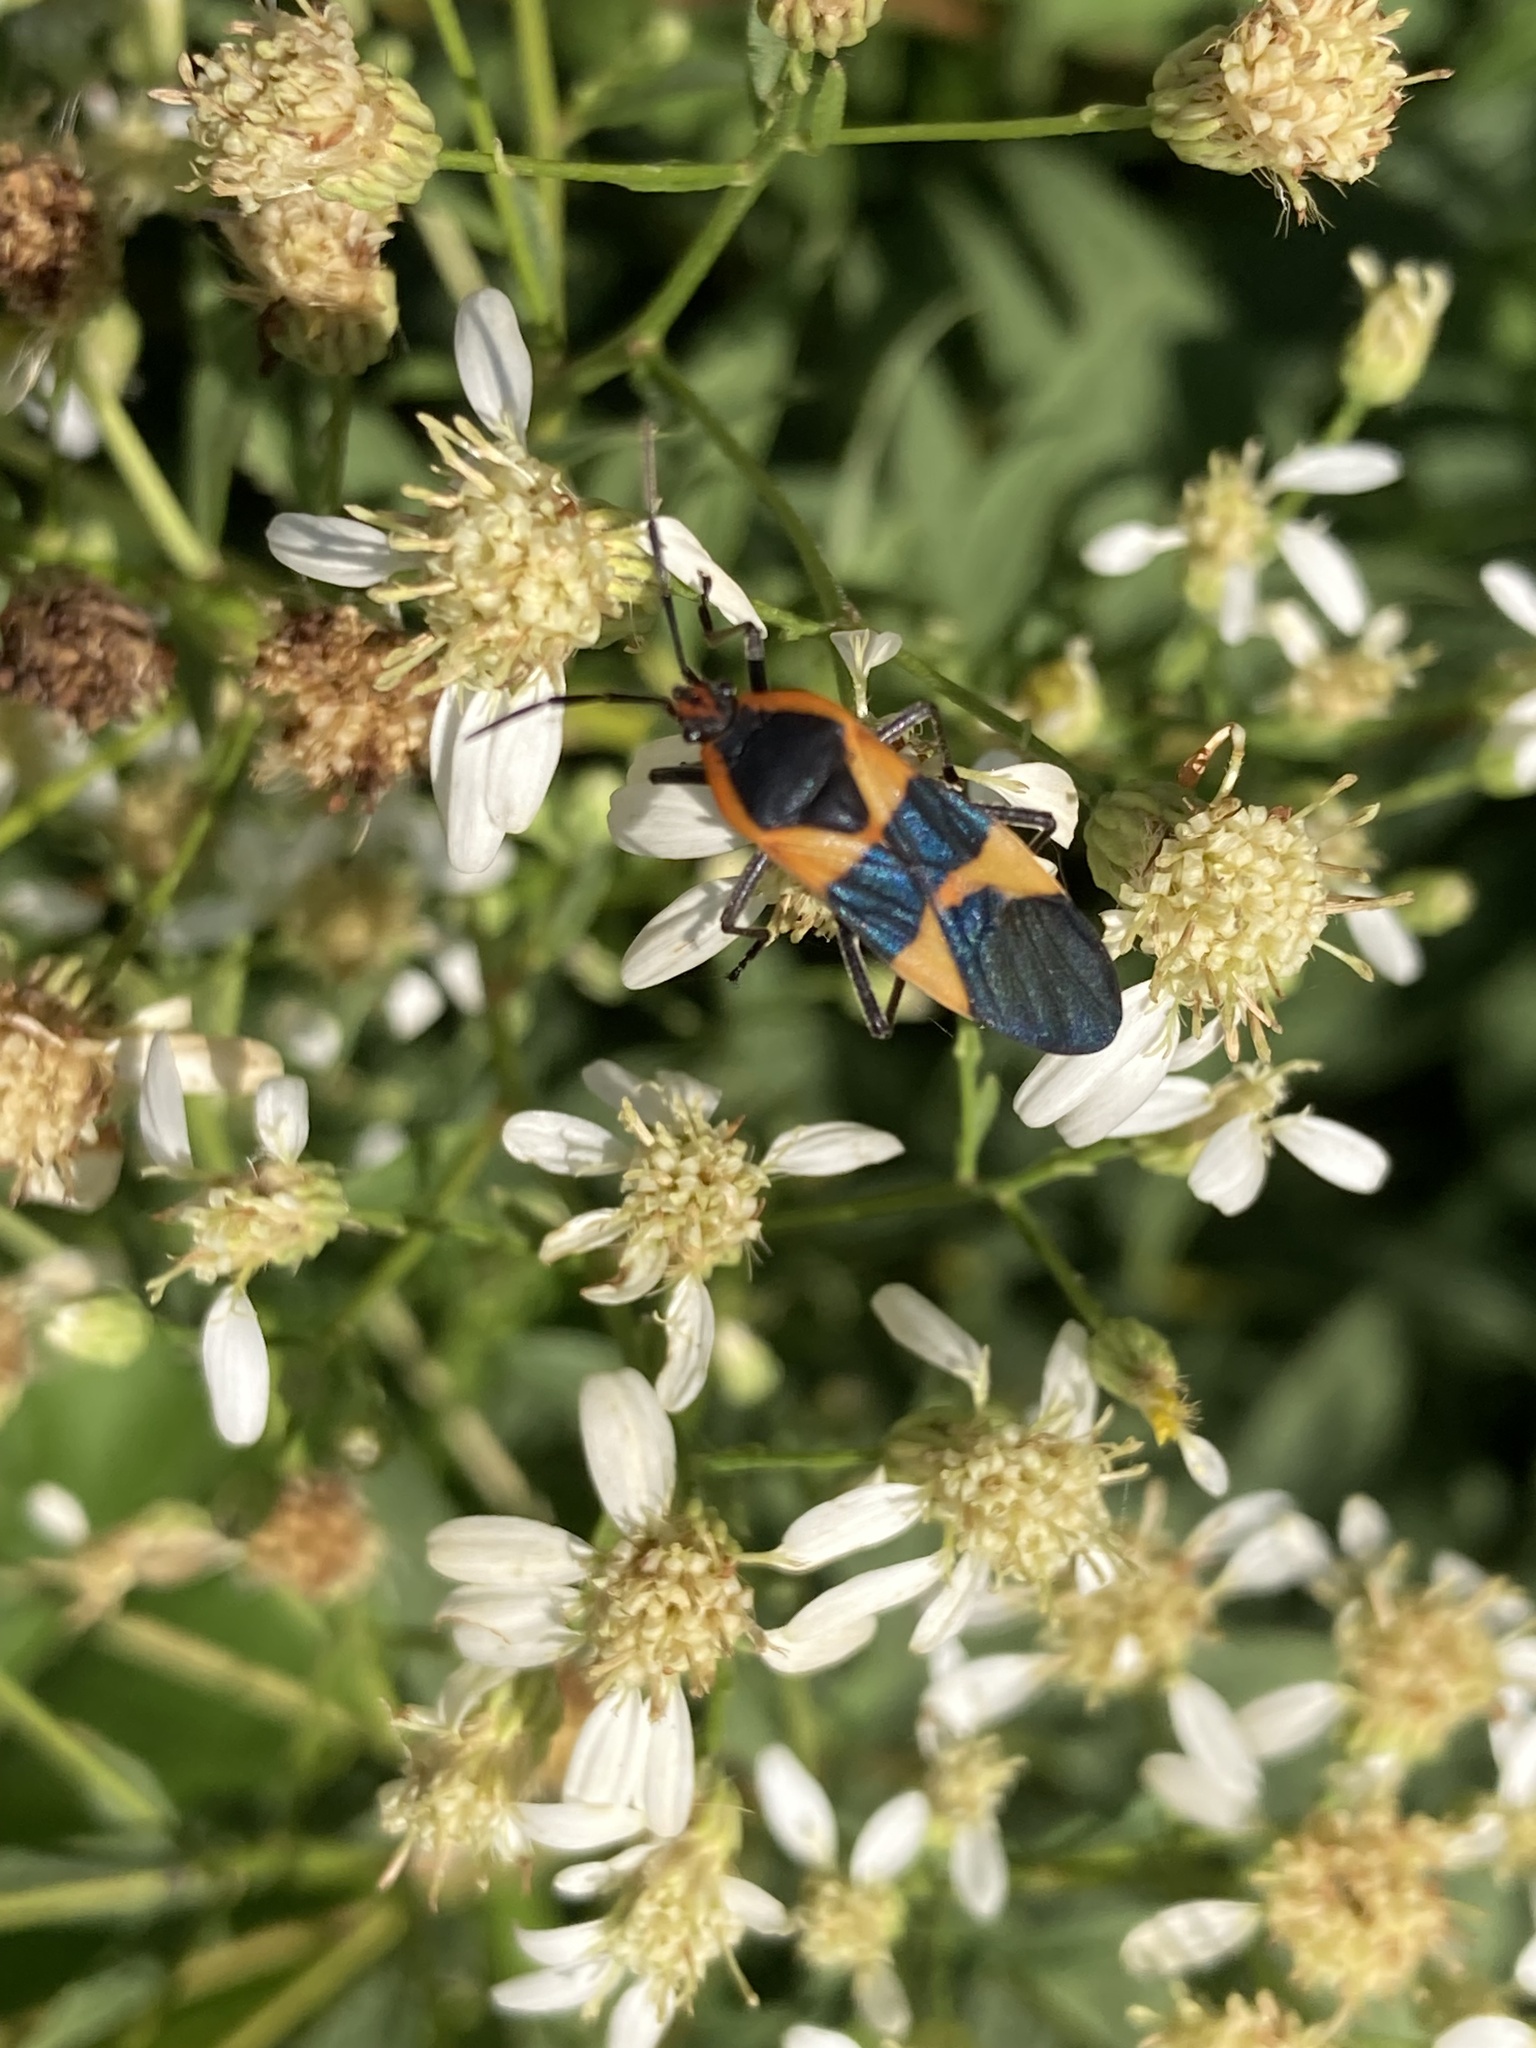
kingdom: Animalia
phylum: Arthropoda
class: Insecta
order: Hemiptera
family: Lygaeidae
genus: Oncopeltus
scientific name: Oncopeltus fasciatus
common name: Large milkweed bug
